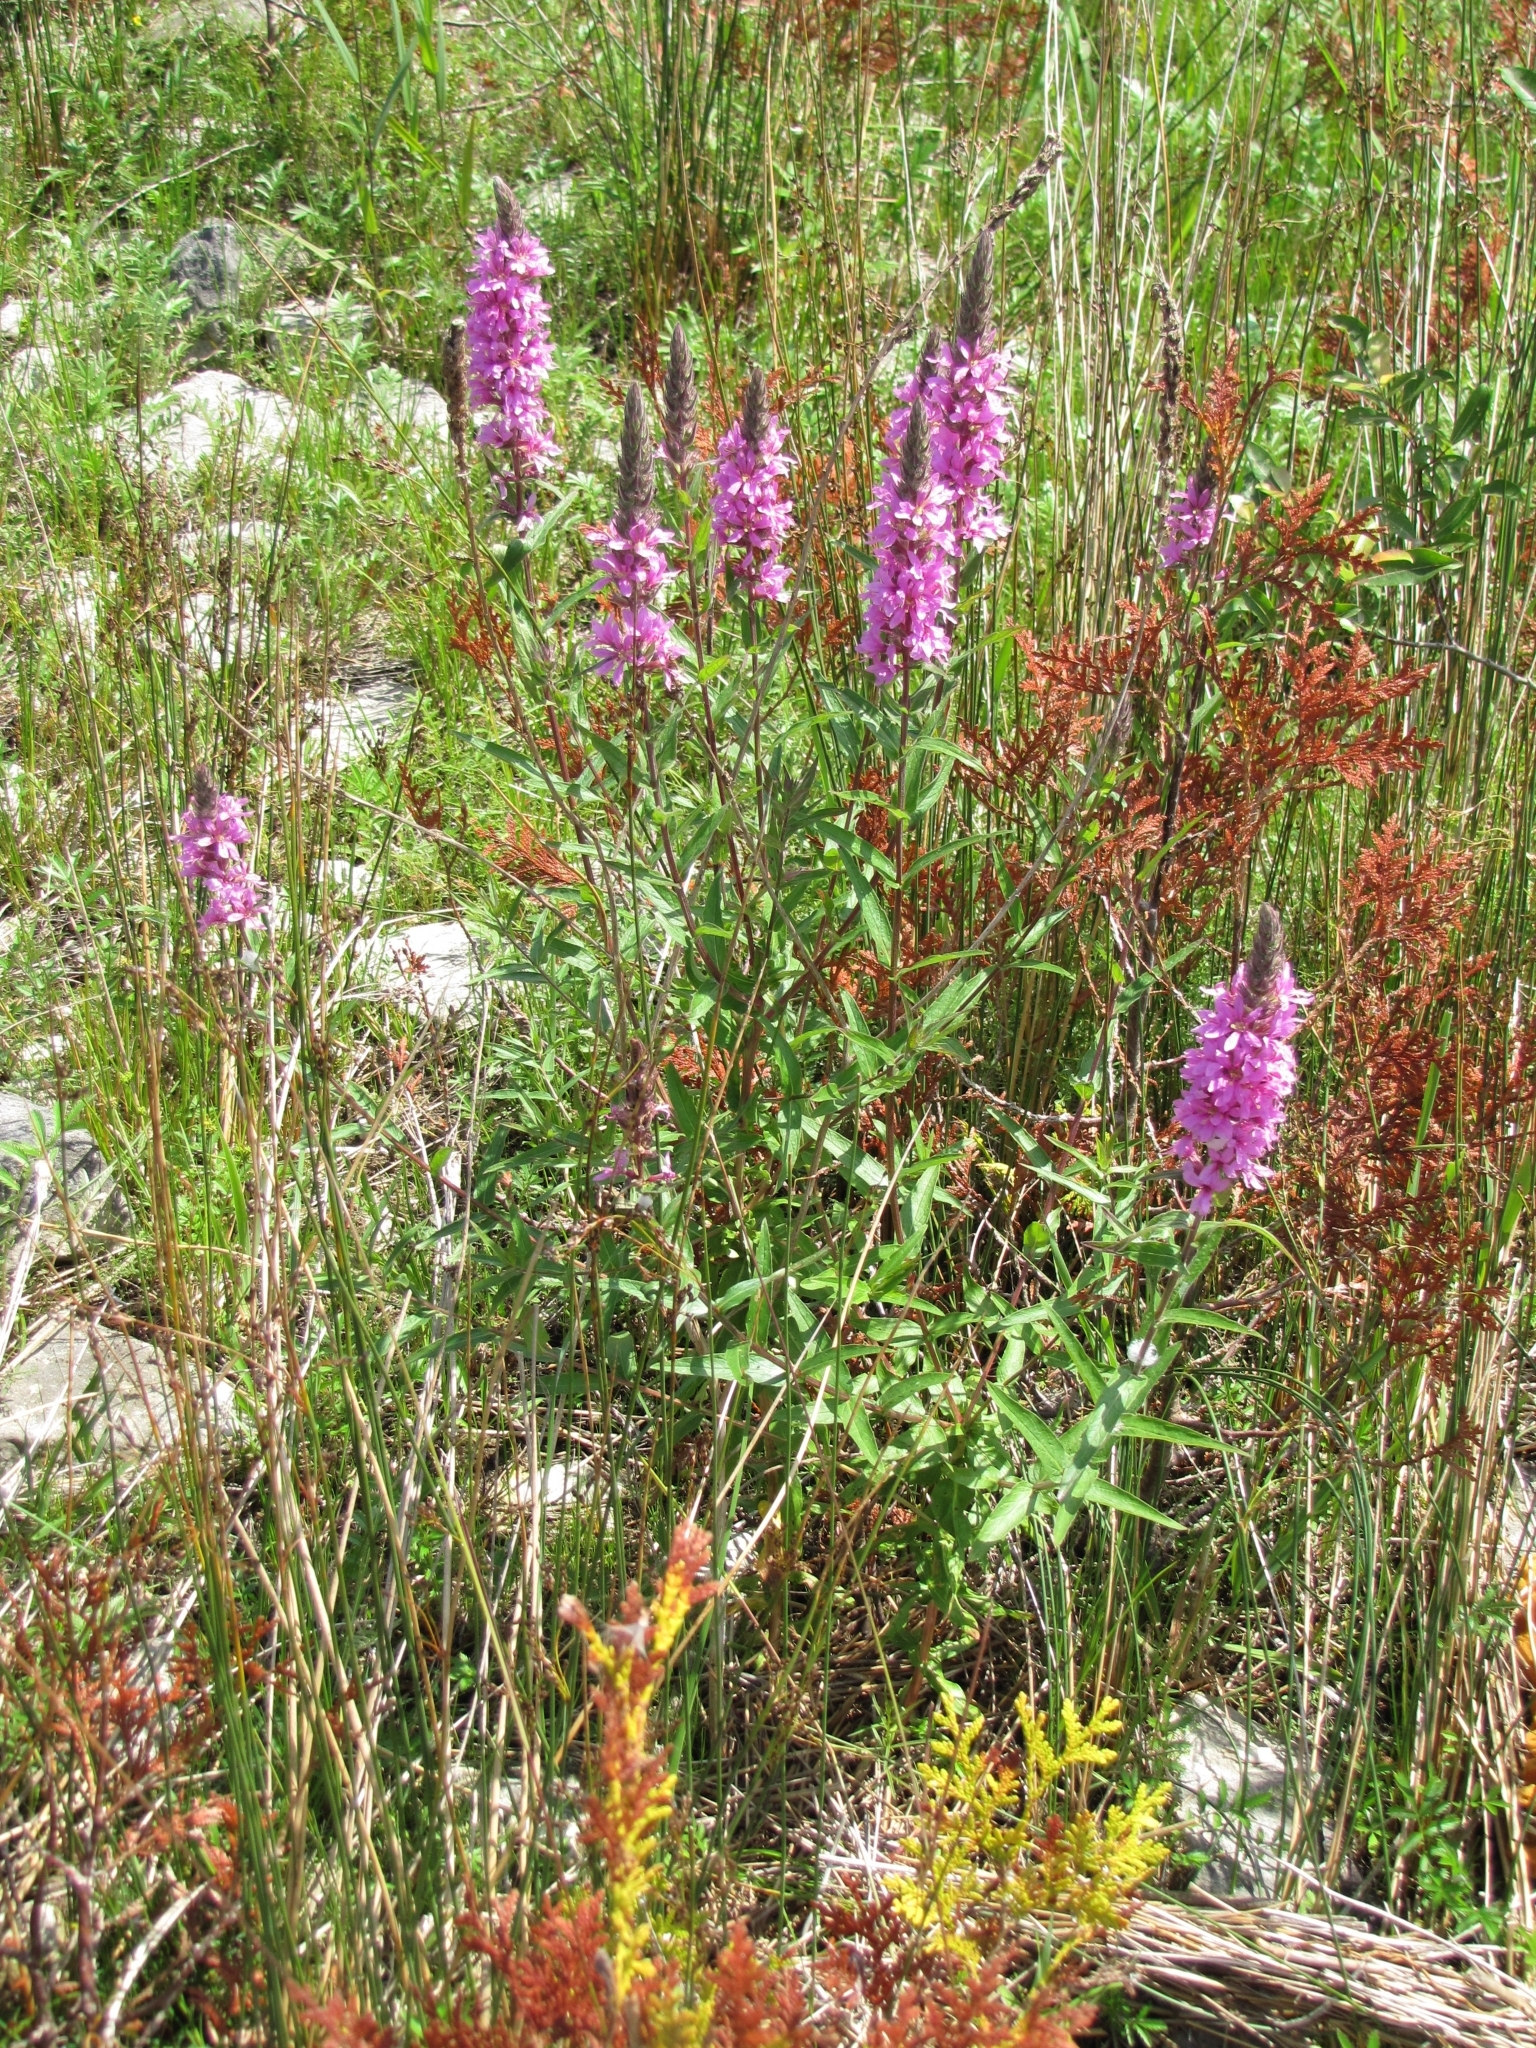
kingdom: Plantae
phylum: Tracheophyta
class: Magnoliopsida
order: Myrtales
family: Lythraceae
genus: Lythrum
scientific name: Lythrum salicaria
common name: Purple loosestrife
